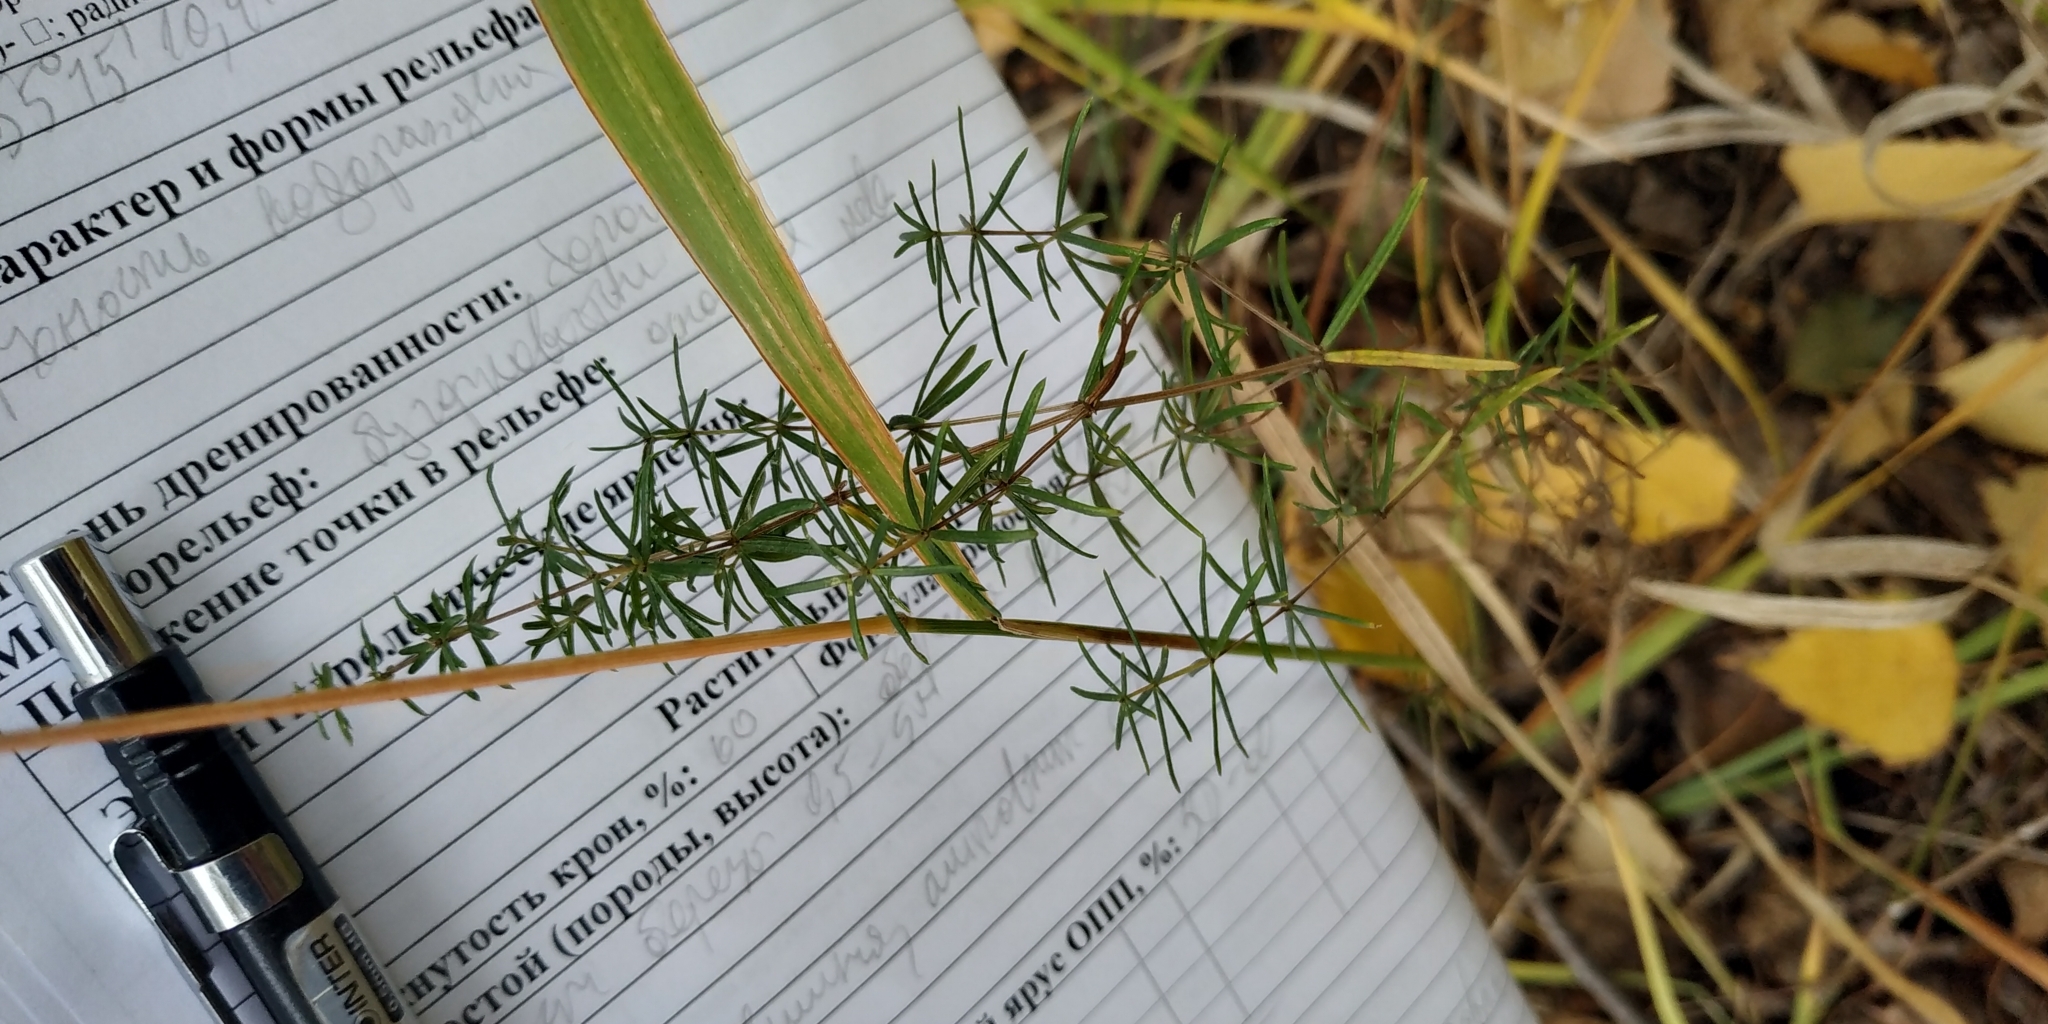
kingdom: Plantae
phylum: Tracheophyta
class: Magnoliopsida
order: Gentianales
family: Rubiaceae
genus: Galium
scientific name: Galium verum
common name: Lady's bedstraw
